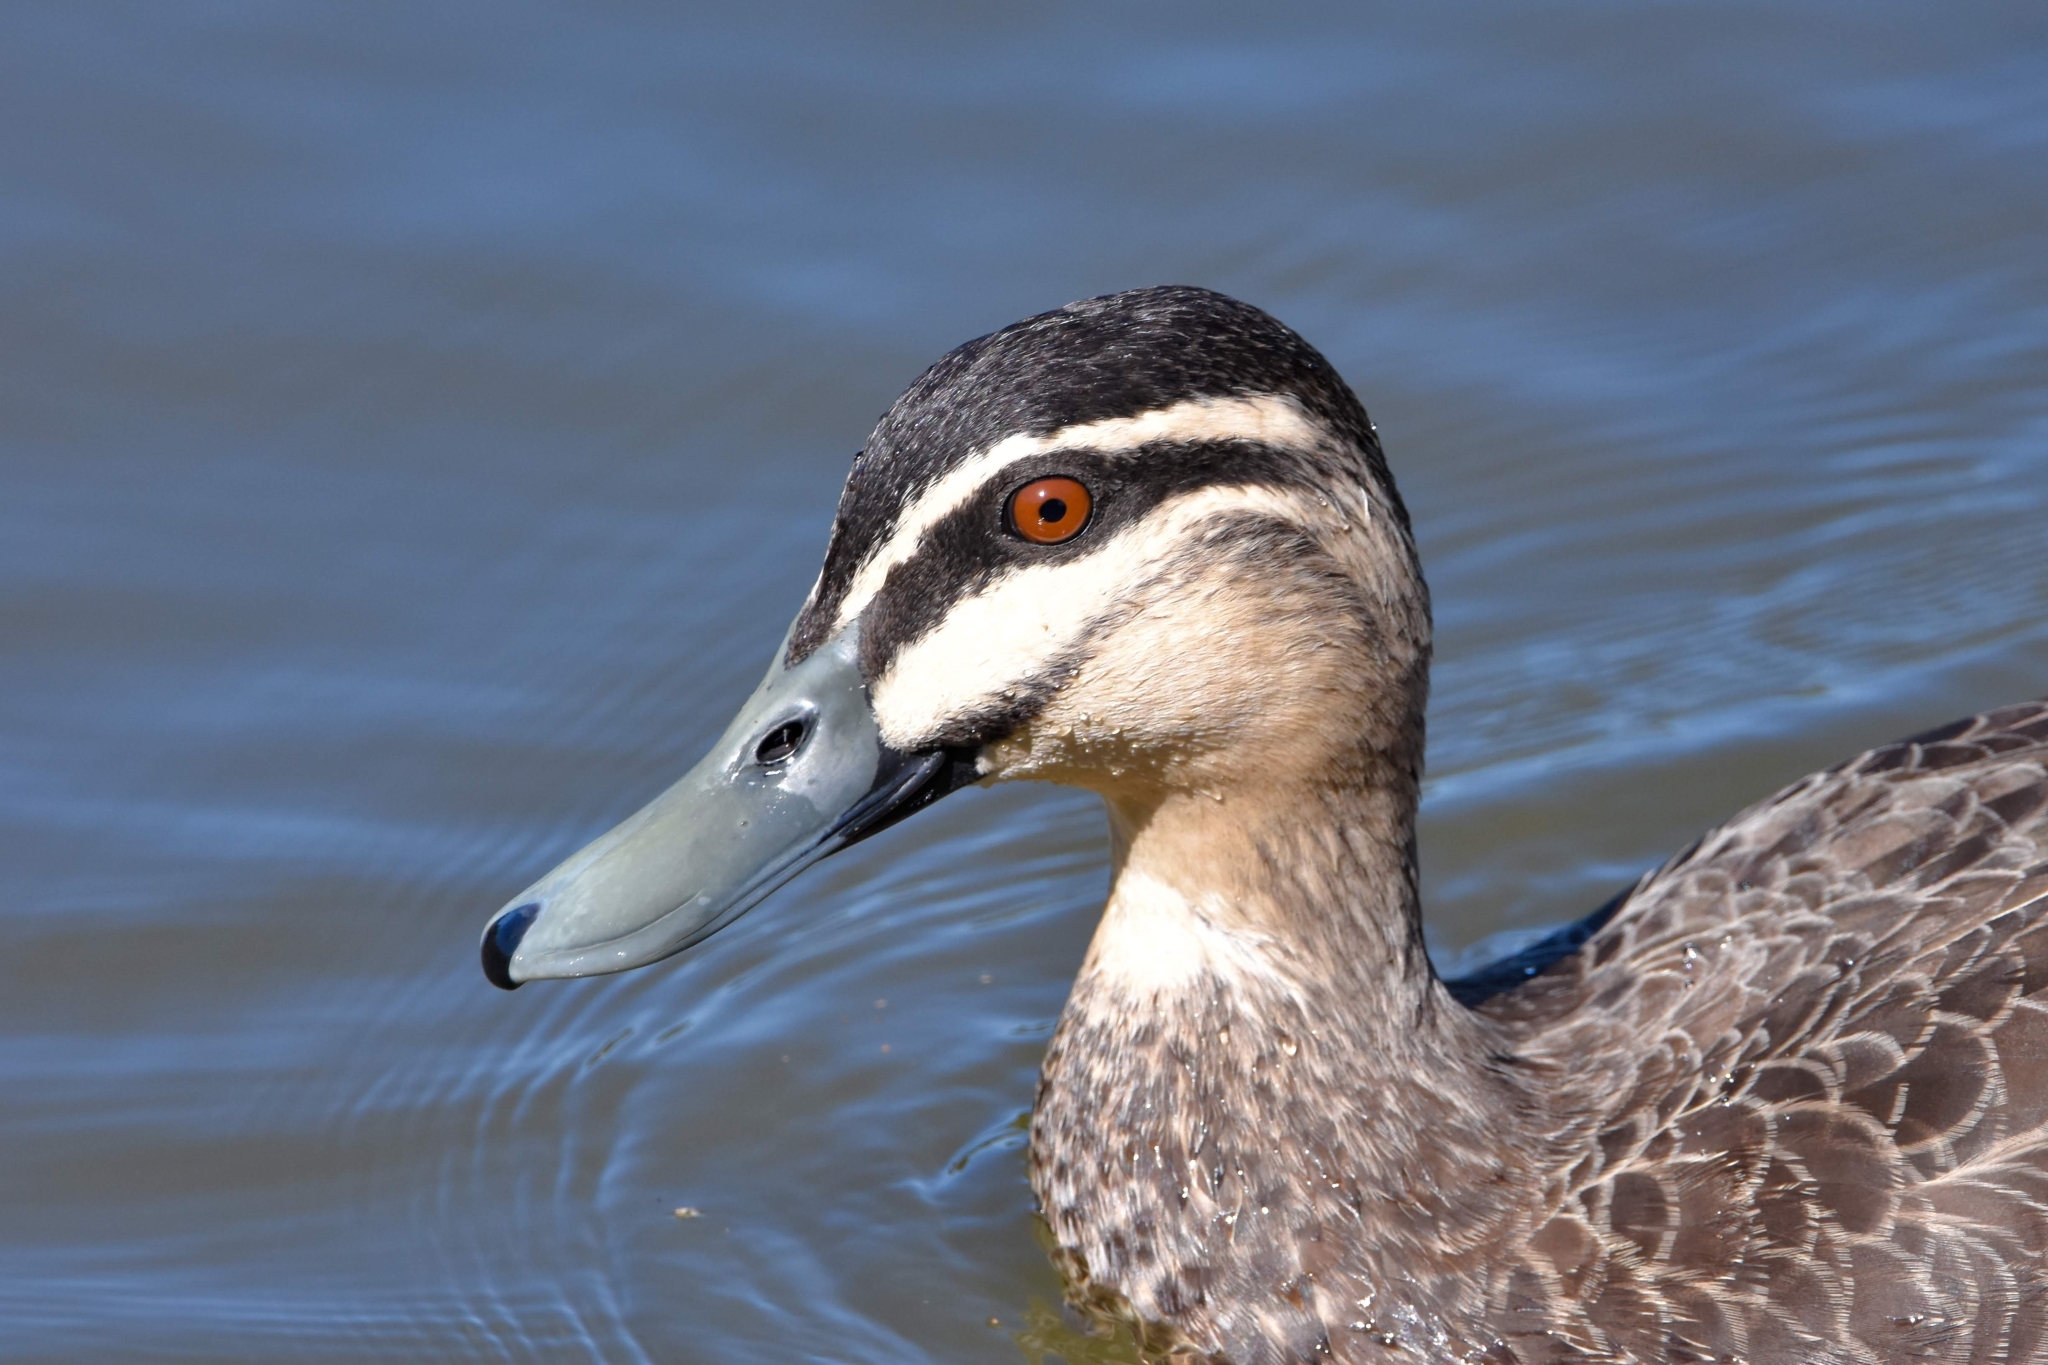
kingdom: Animalia
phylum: Chordata
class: Aves
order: Anseriformes
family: Anatidae
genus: Anas
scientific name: Anas superciliosa
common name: Pacific black duck
